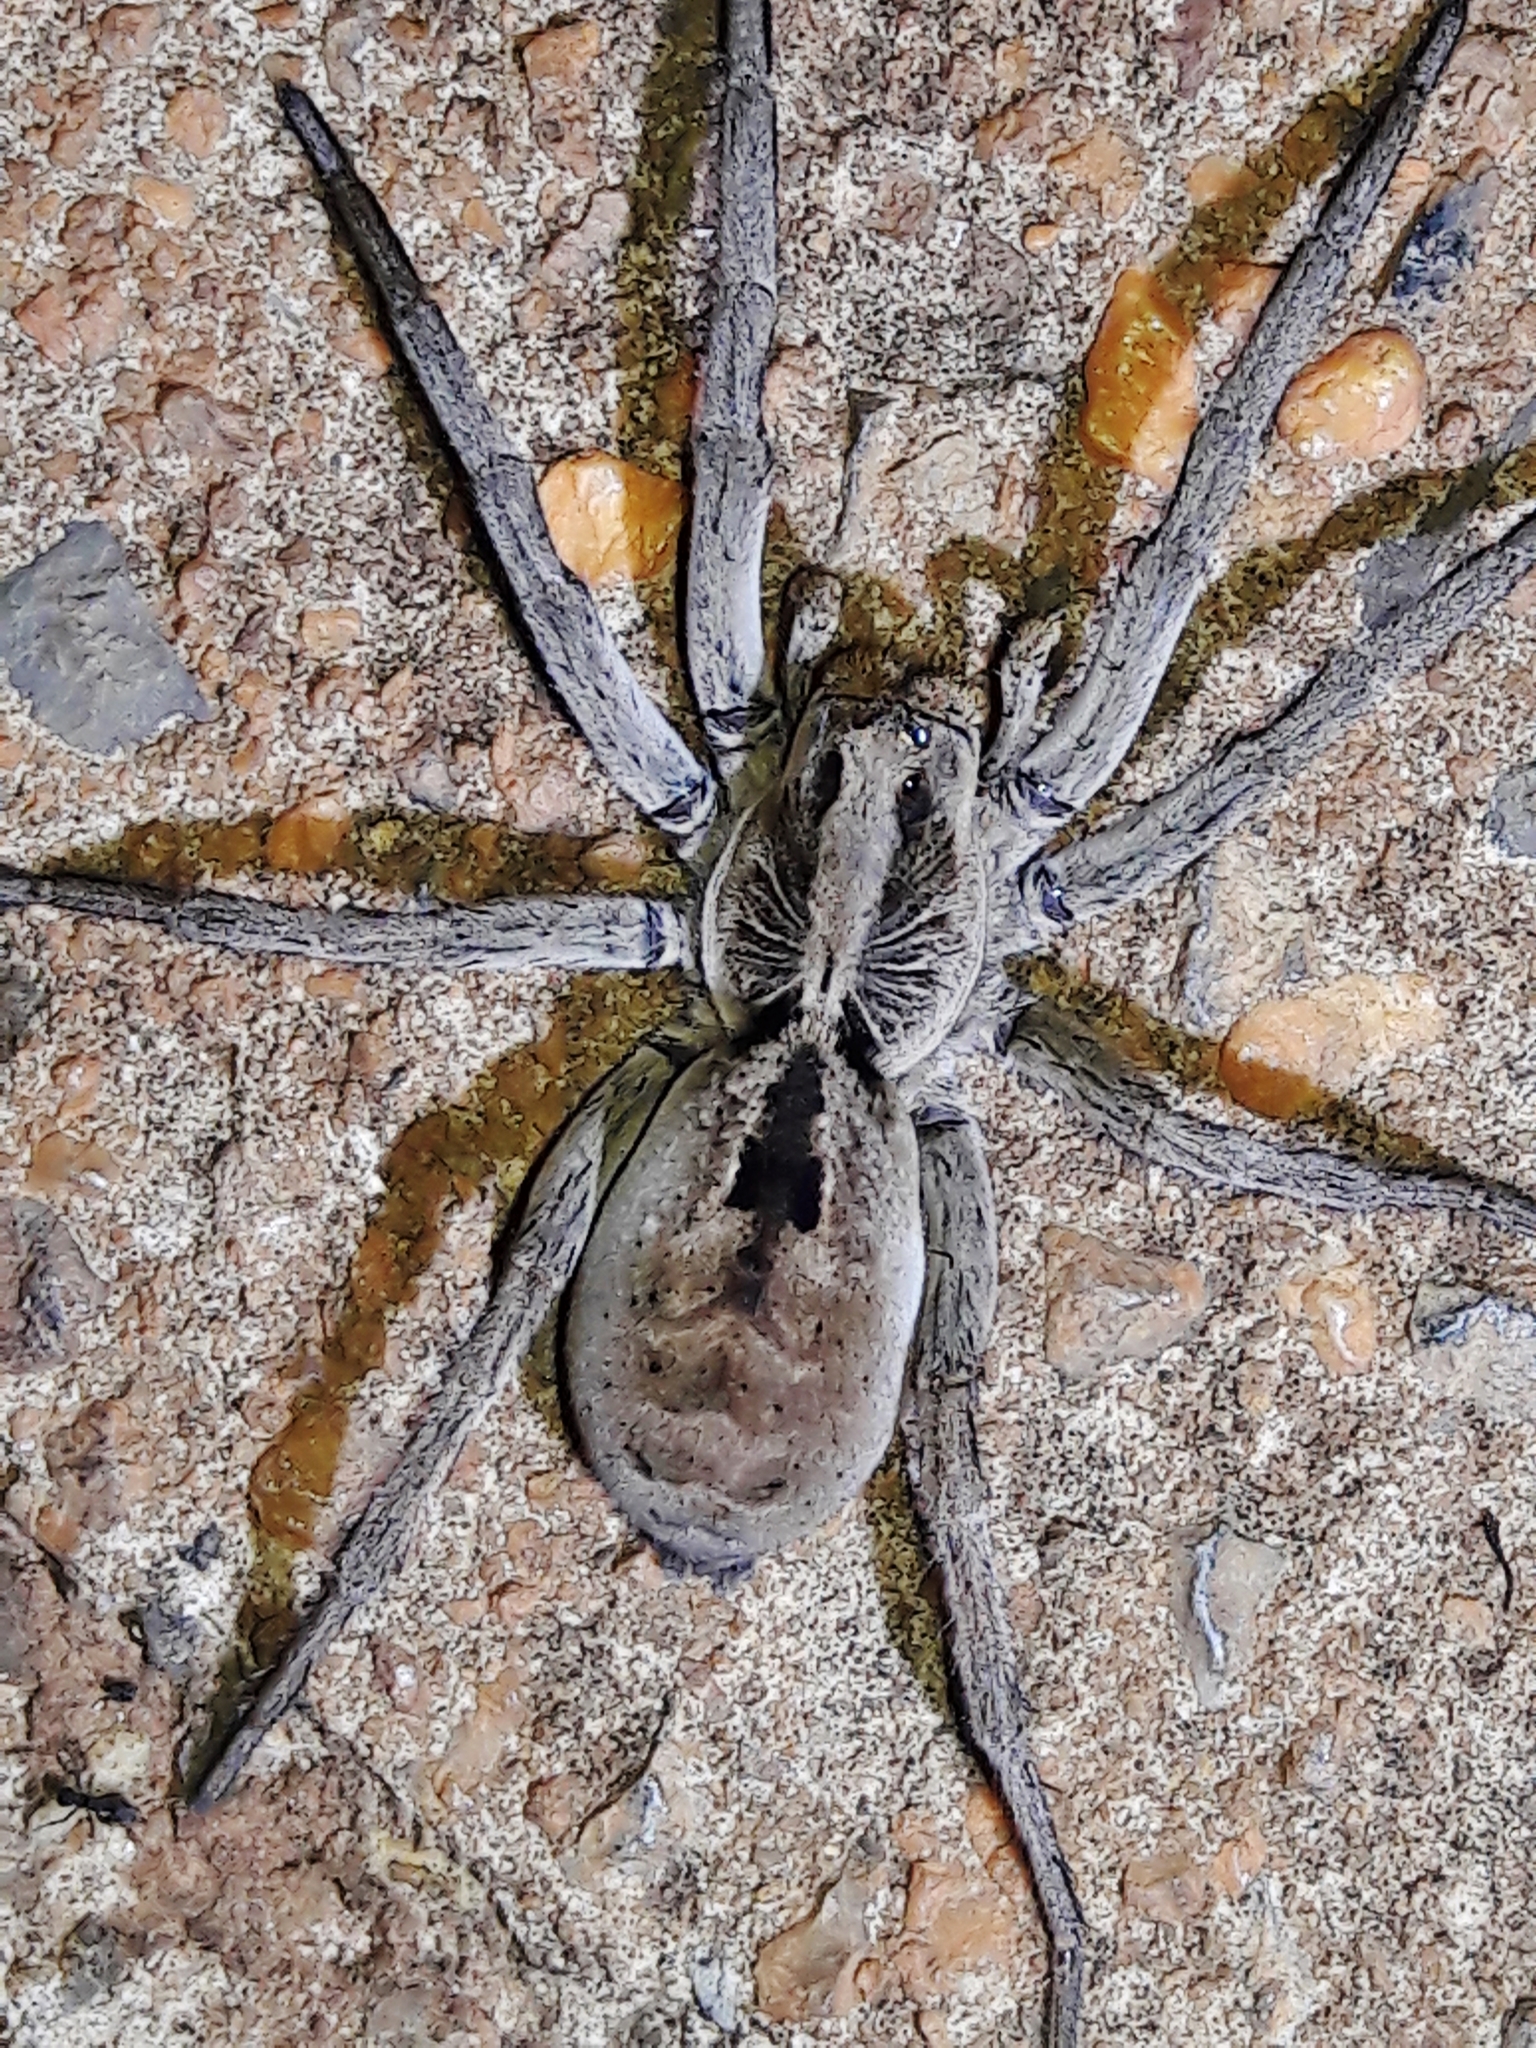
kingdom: Animalia
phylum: Arthropoda
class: Arachnida
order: Araneae
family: Lycosidae
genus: Lycosa
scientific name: Lycosa erythrognatha
